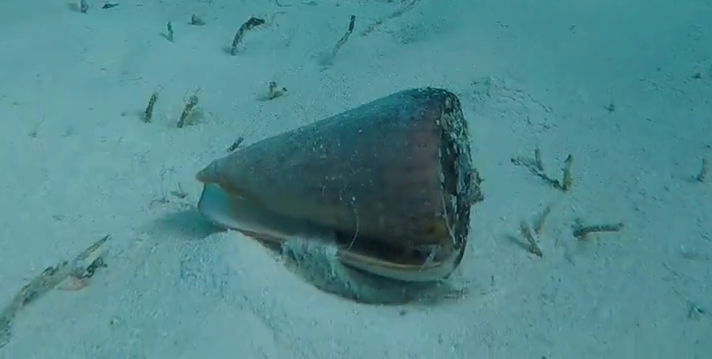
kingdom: Animalia
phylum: Mollusca
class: Gastropoda
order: Neogastropoda
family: Conidae
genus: Conus
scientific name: Conus leopardus
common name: Leopard cone
